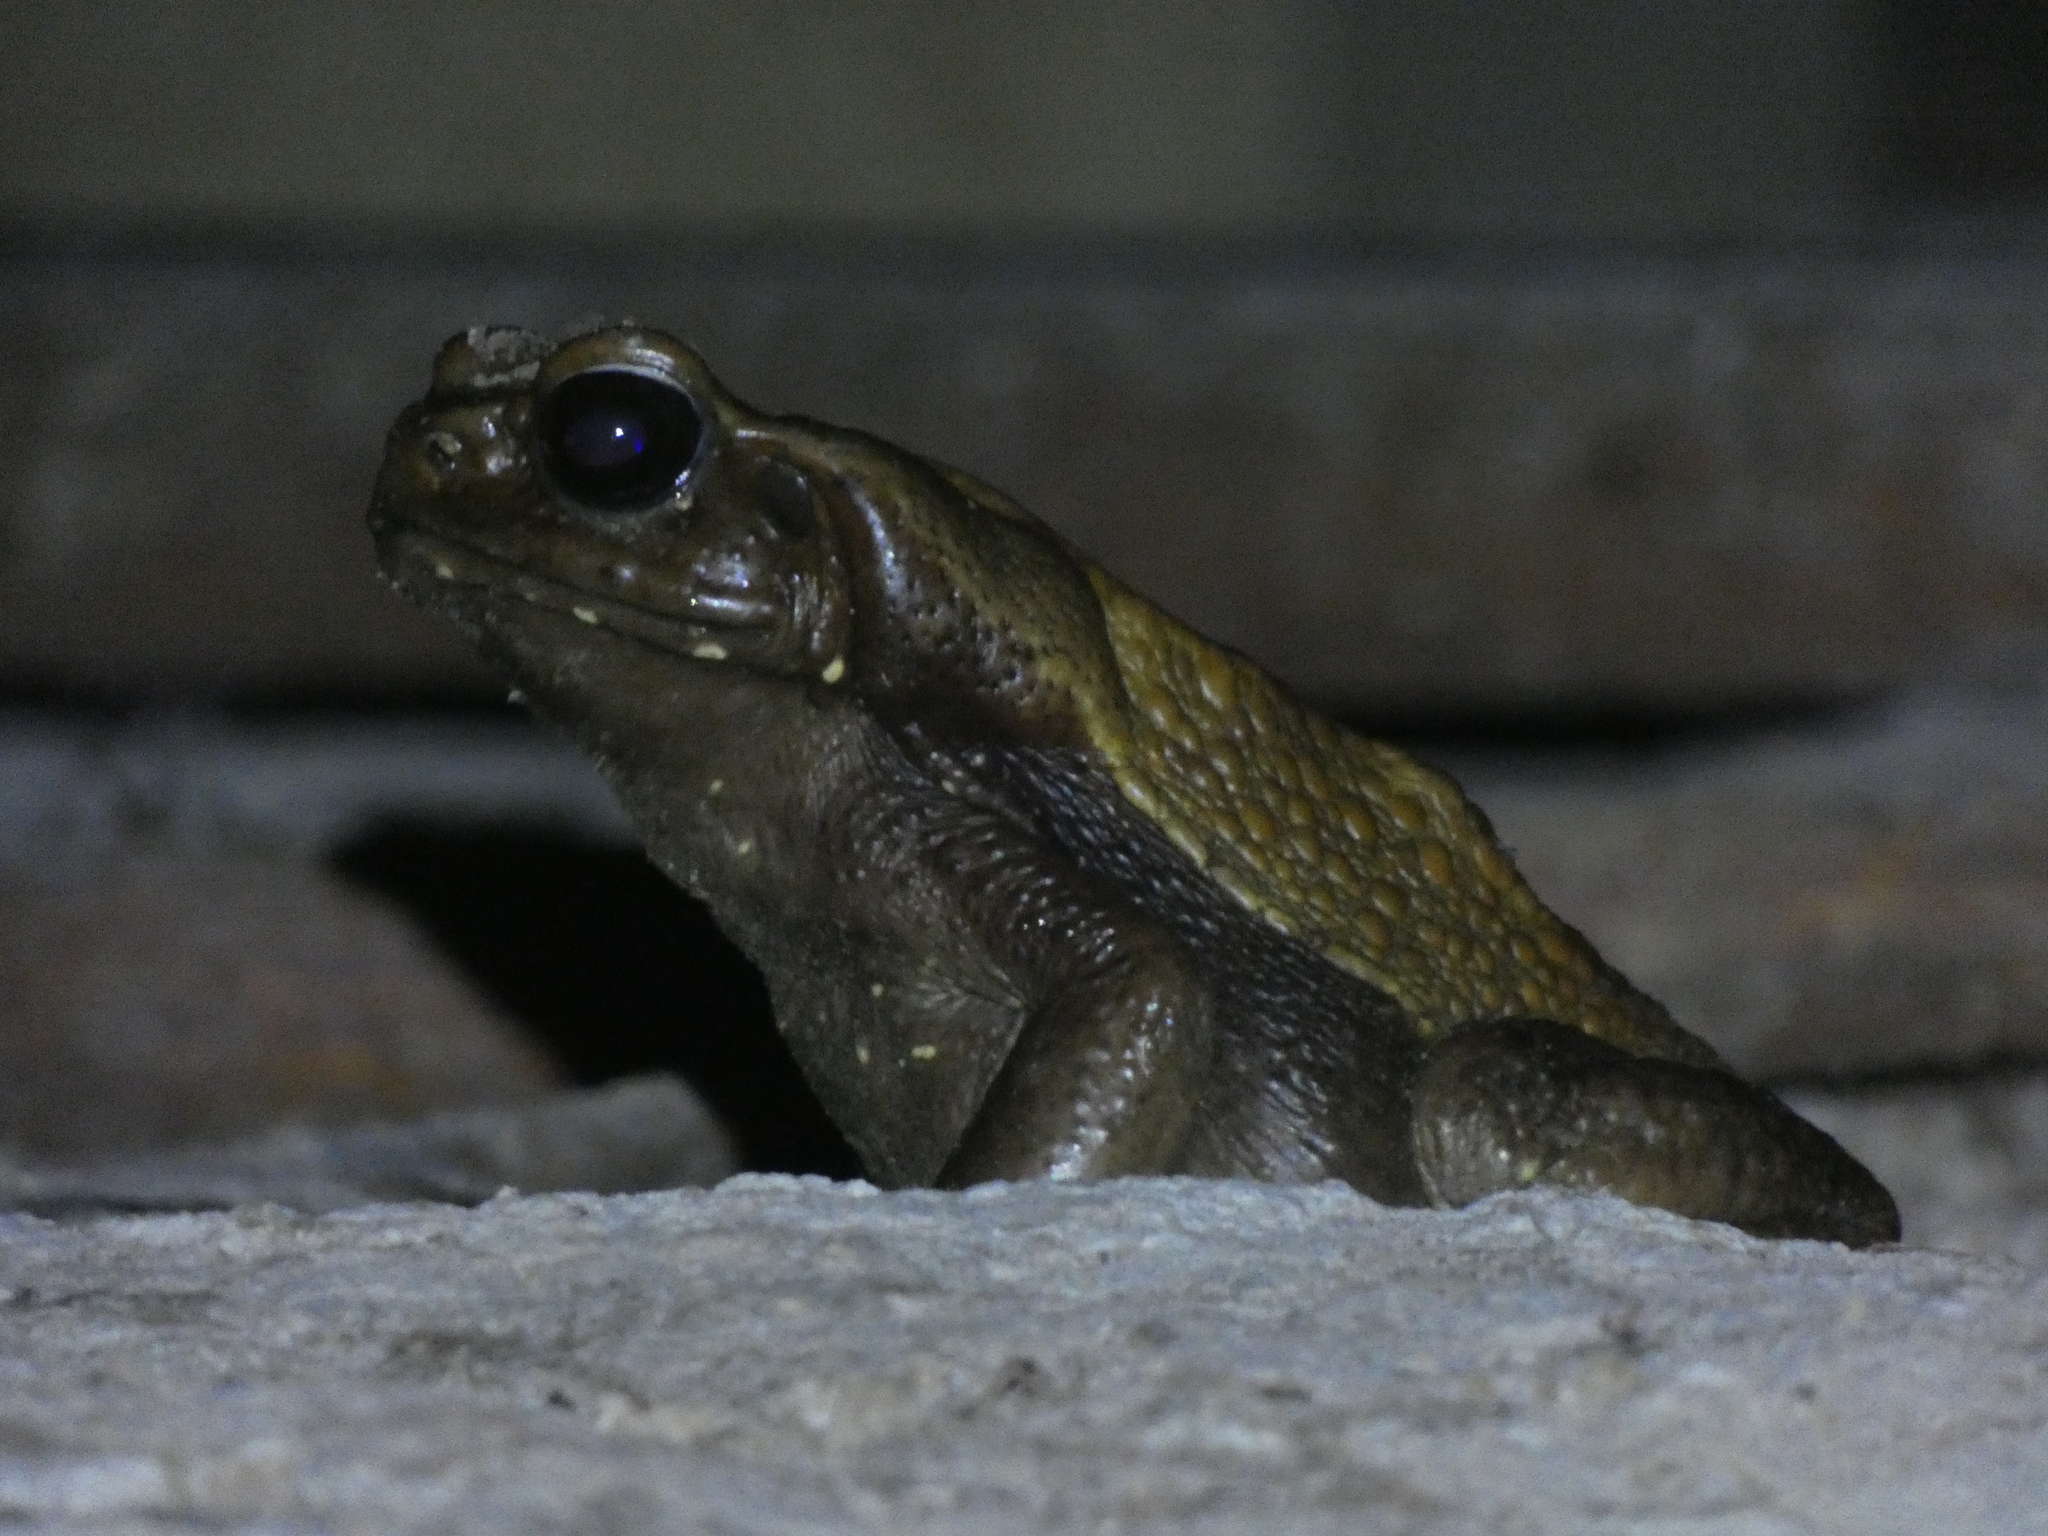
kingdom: Animalia
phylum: Chordata
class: Amphibia
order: Anura
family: Bufonidae
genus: Rhaebo
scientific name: Rhaebo guttatus
